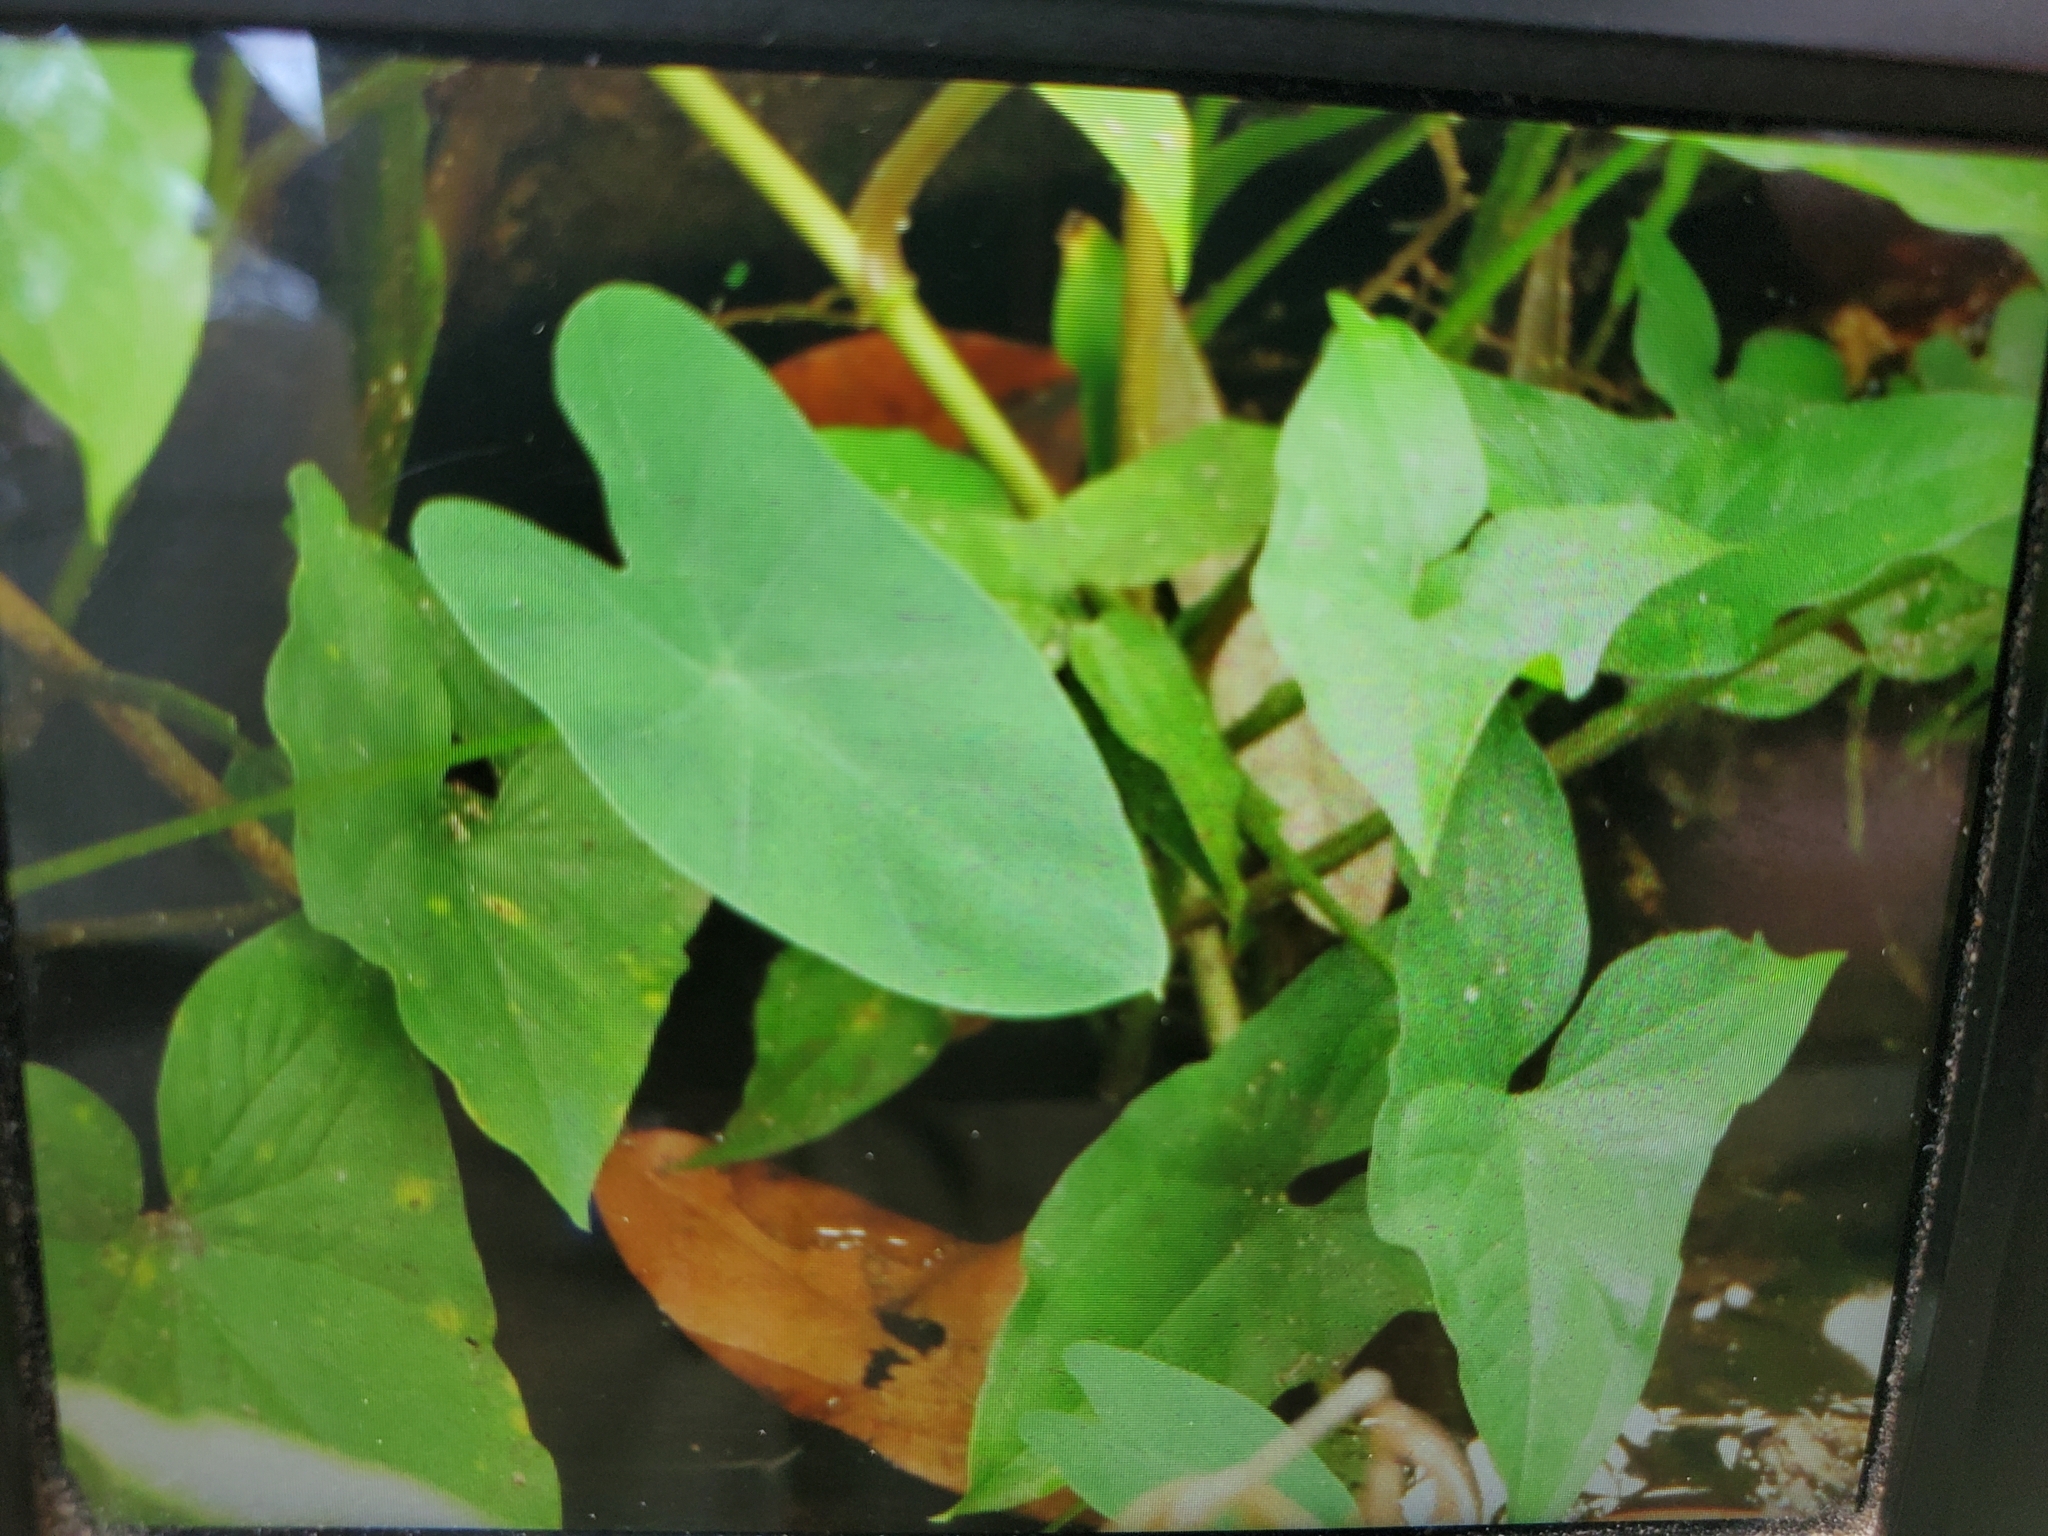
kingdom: Plantae
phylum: Tracheophyta
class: Liliopsida
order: Alismatales
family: Araceae
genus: Colocasia
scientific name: Colocasia esculenta
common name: Taro
